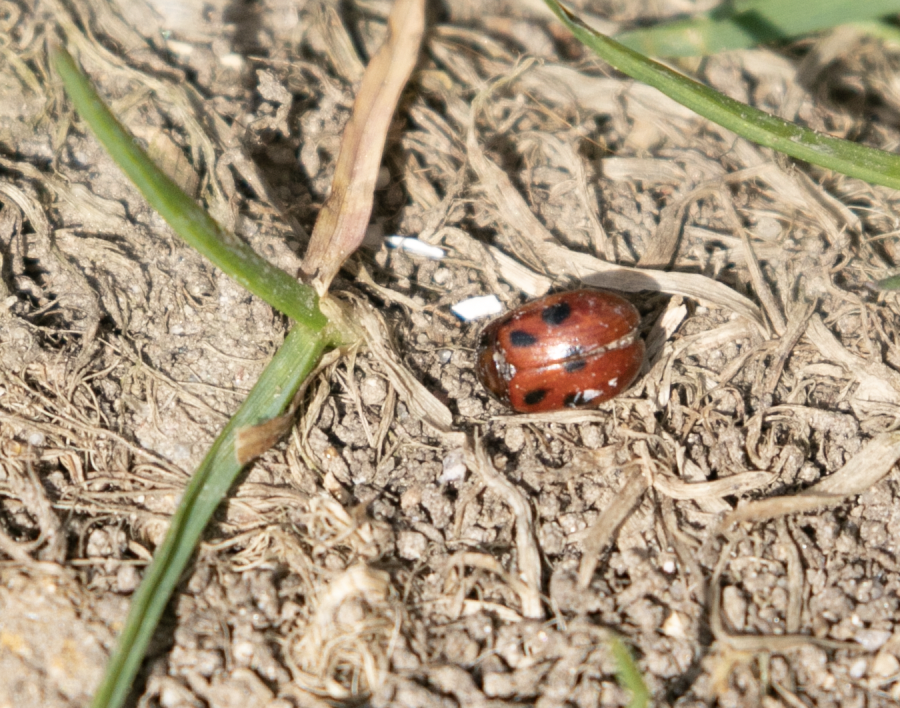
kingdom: Animalia
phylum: Arthropoda
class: Insecta
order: Coleoptera
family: Chrysomelidae
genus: Gonioctena
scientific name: Gonioctena fornicata
